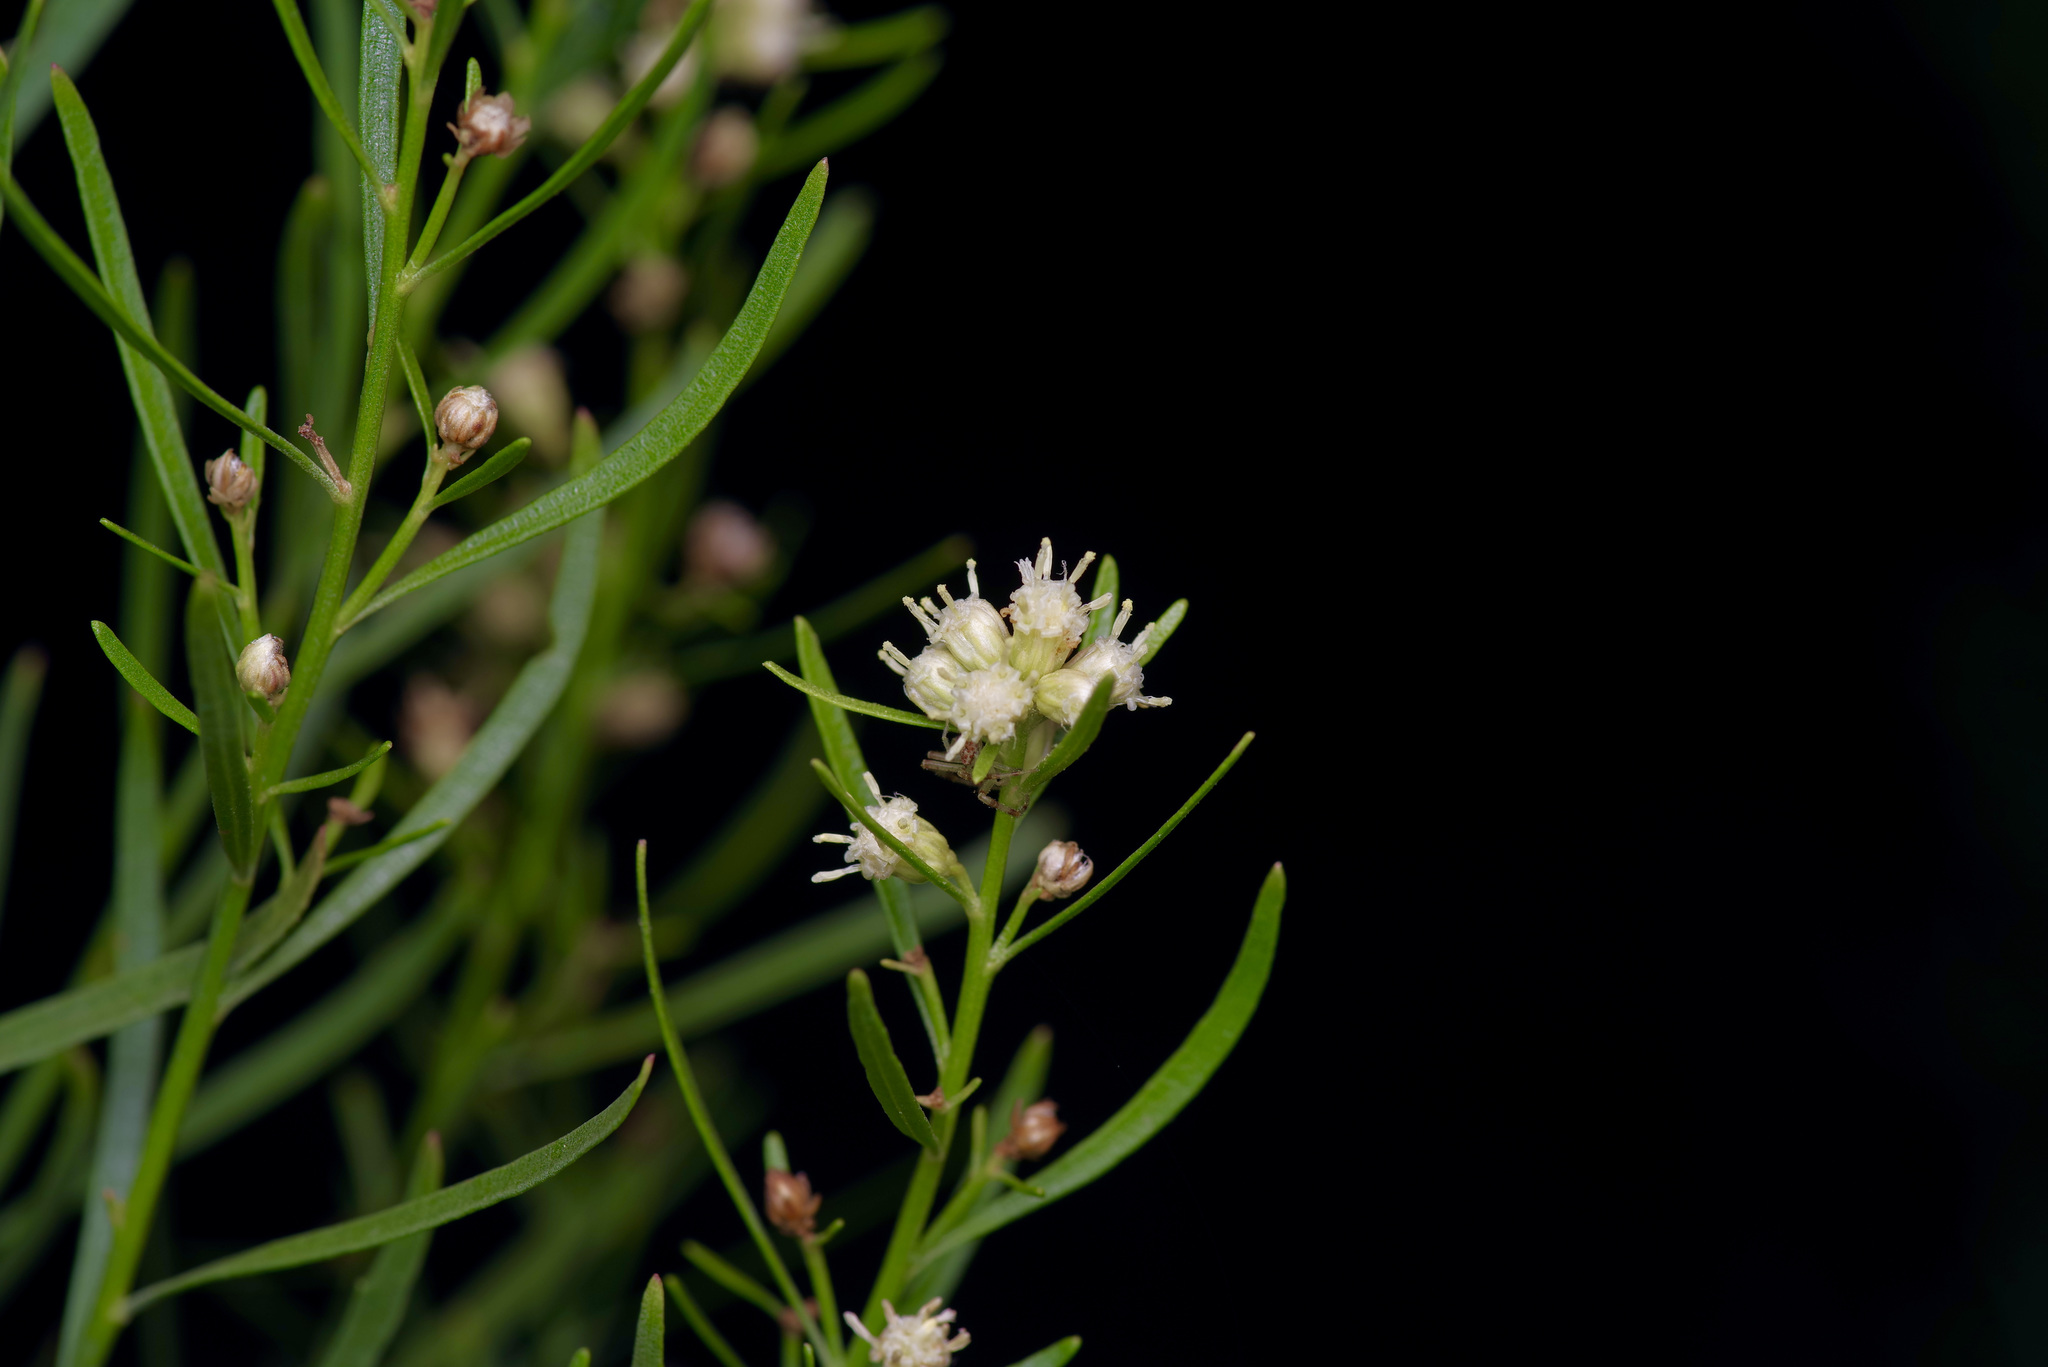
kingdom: Plantae
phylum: Tracheophyta
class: Magnoliopsida
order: Asterales
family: Asteraceae
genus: Baccharis
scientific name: Baccharis neglecta
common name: Roosevelt-weed
